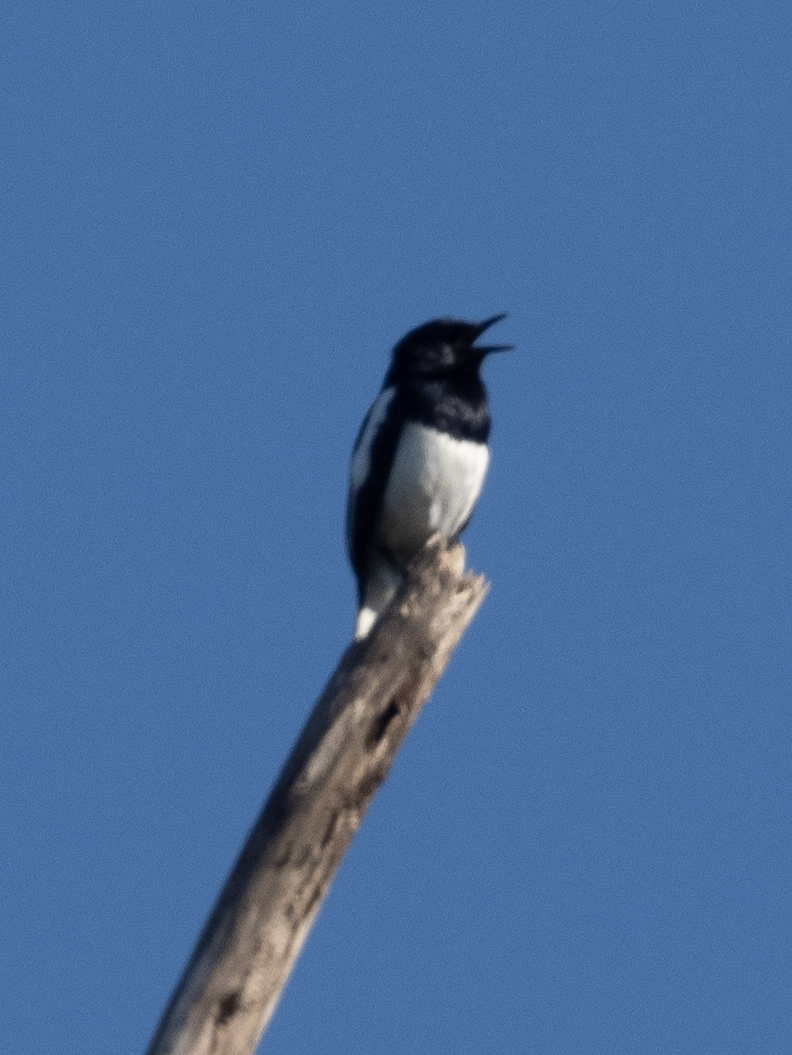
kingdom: Animalia
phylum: Chordata
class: Aves
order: Passeriformes
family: Muscicapidae
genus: Copsychus
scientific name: Copsychus saularis
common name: Oriental magpie-robin
